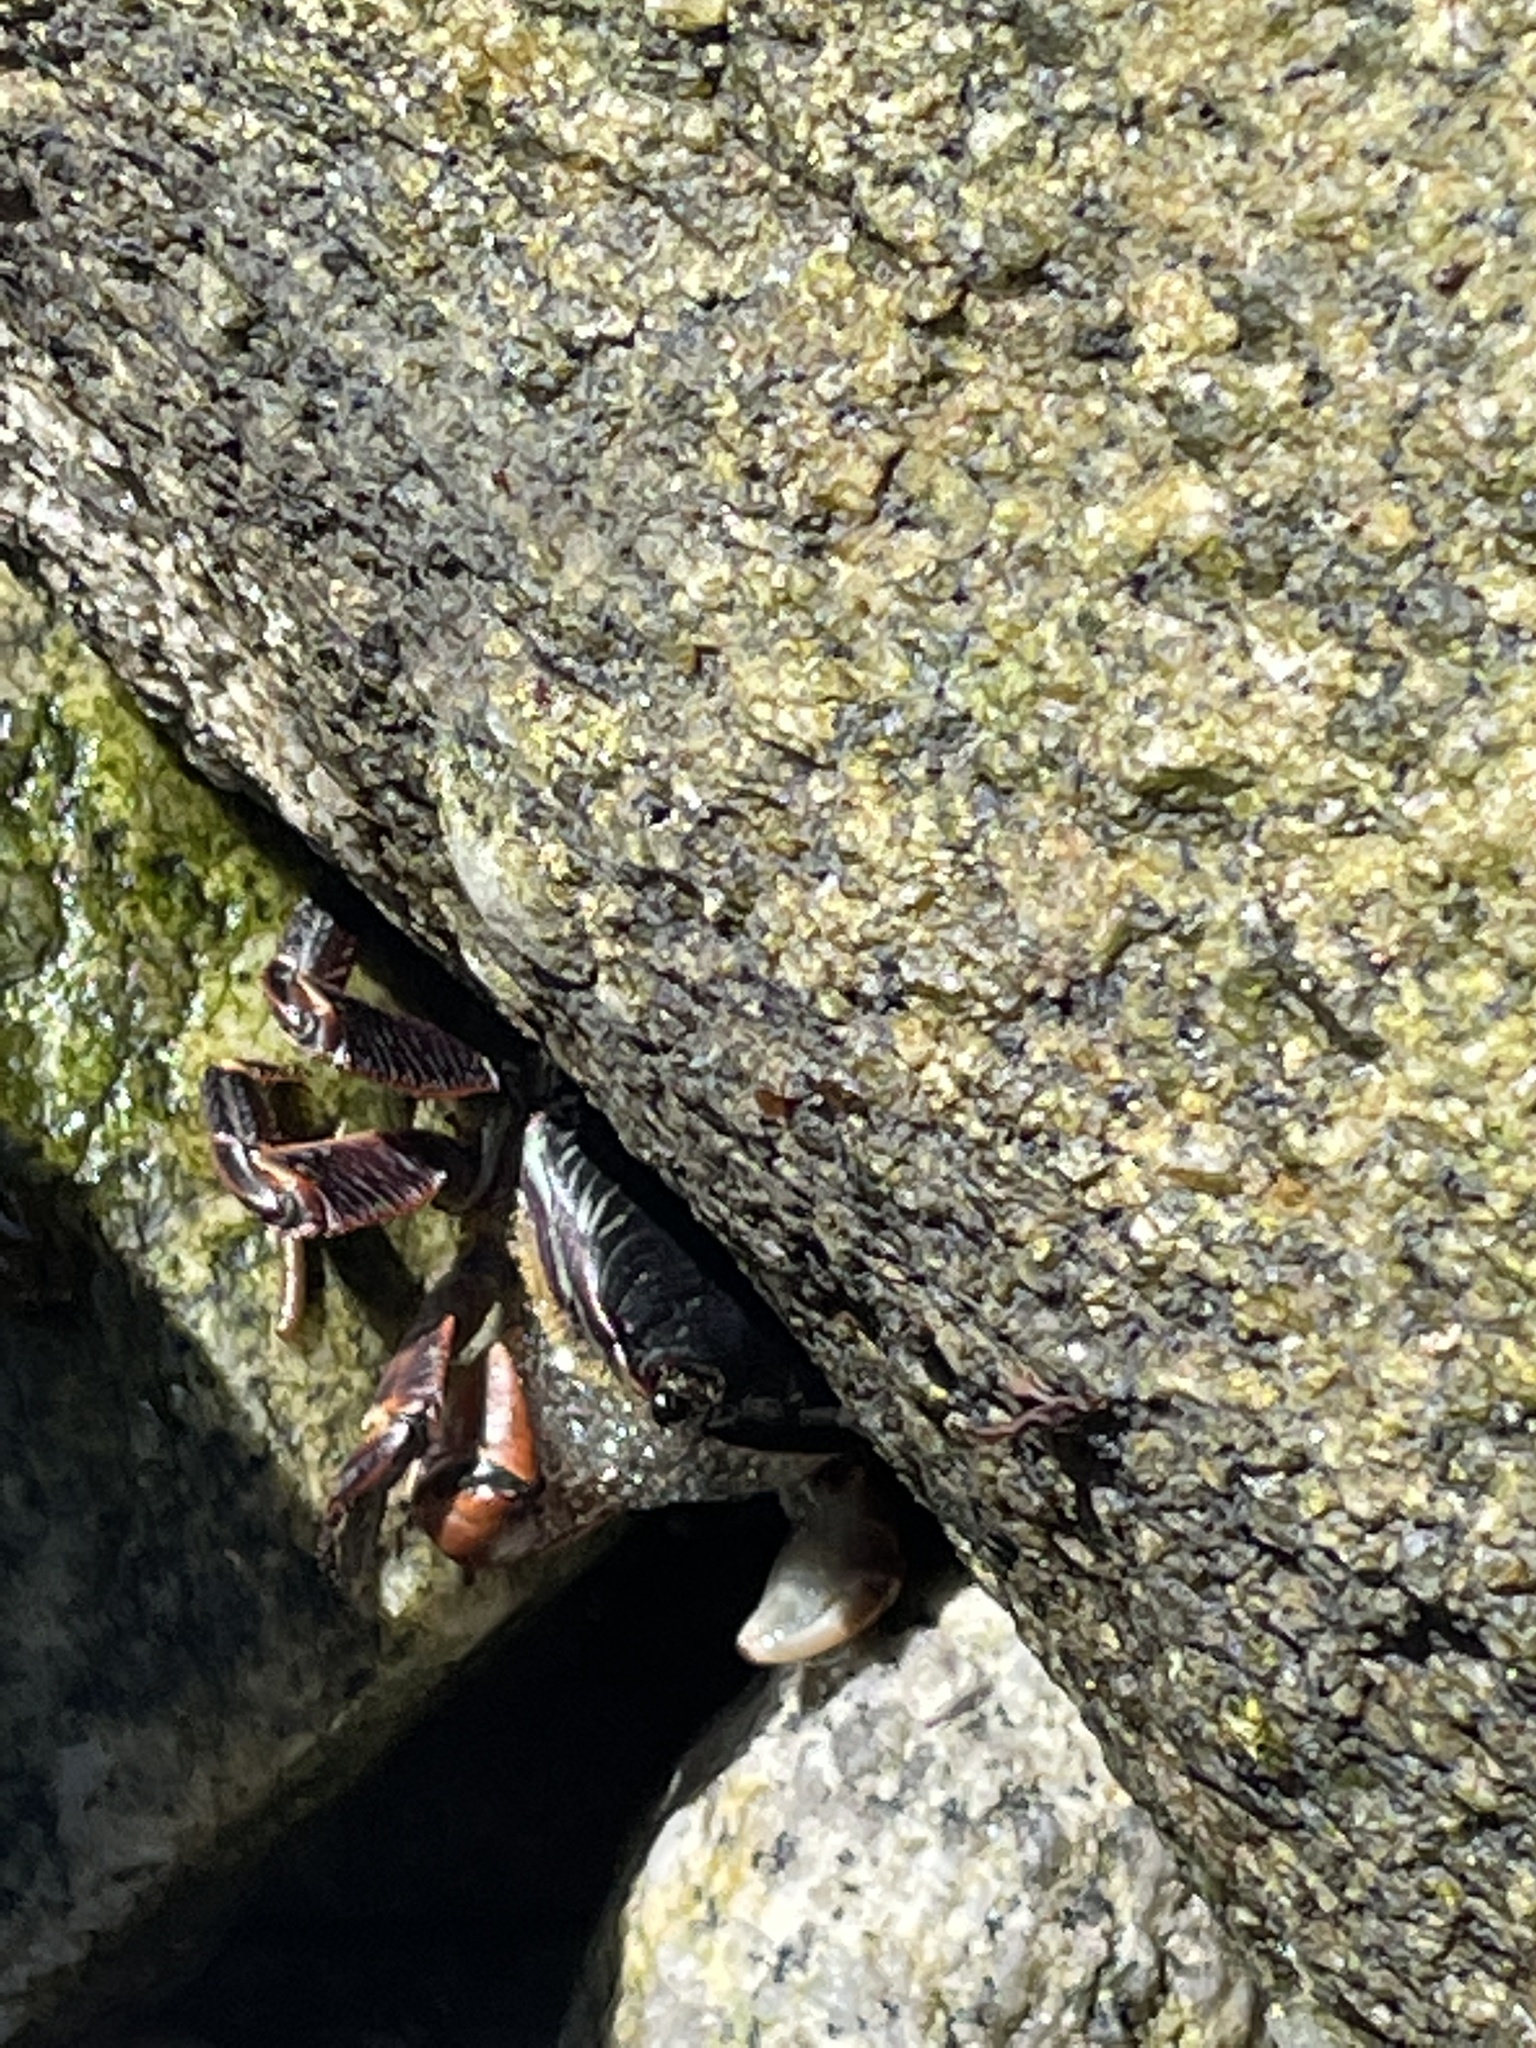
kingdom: Animalia
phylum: Arthropoda
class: Malacostraca
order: Decapoda
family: Grapsidae
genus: Pachygrapsus
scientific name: Pachygrapsus crassipes
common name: Striped shore crab
